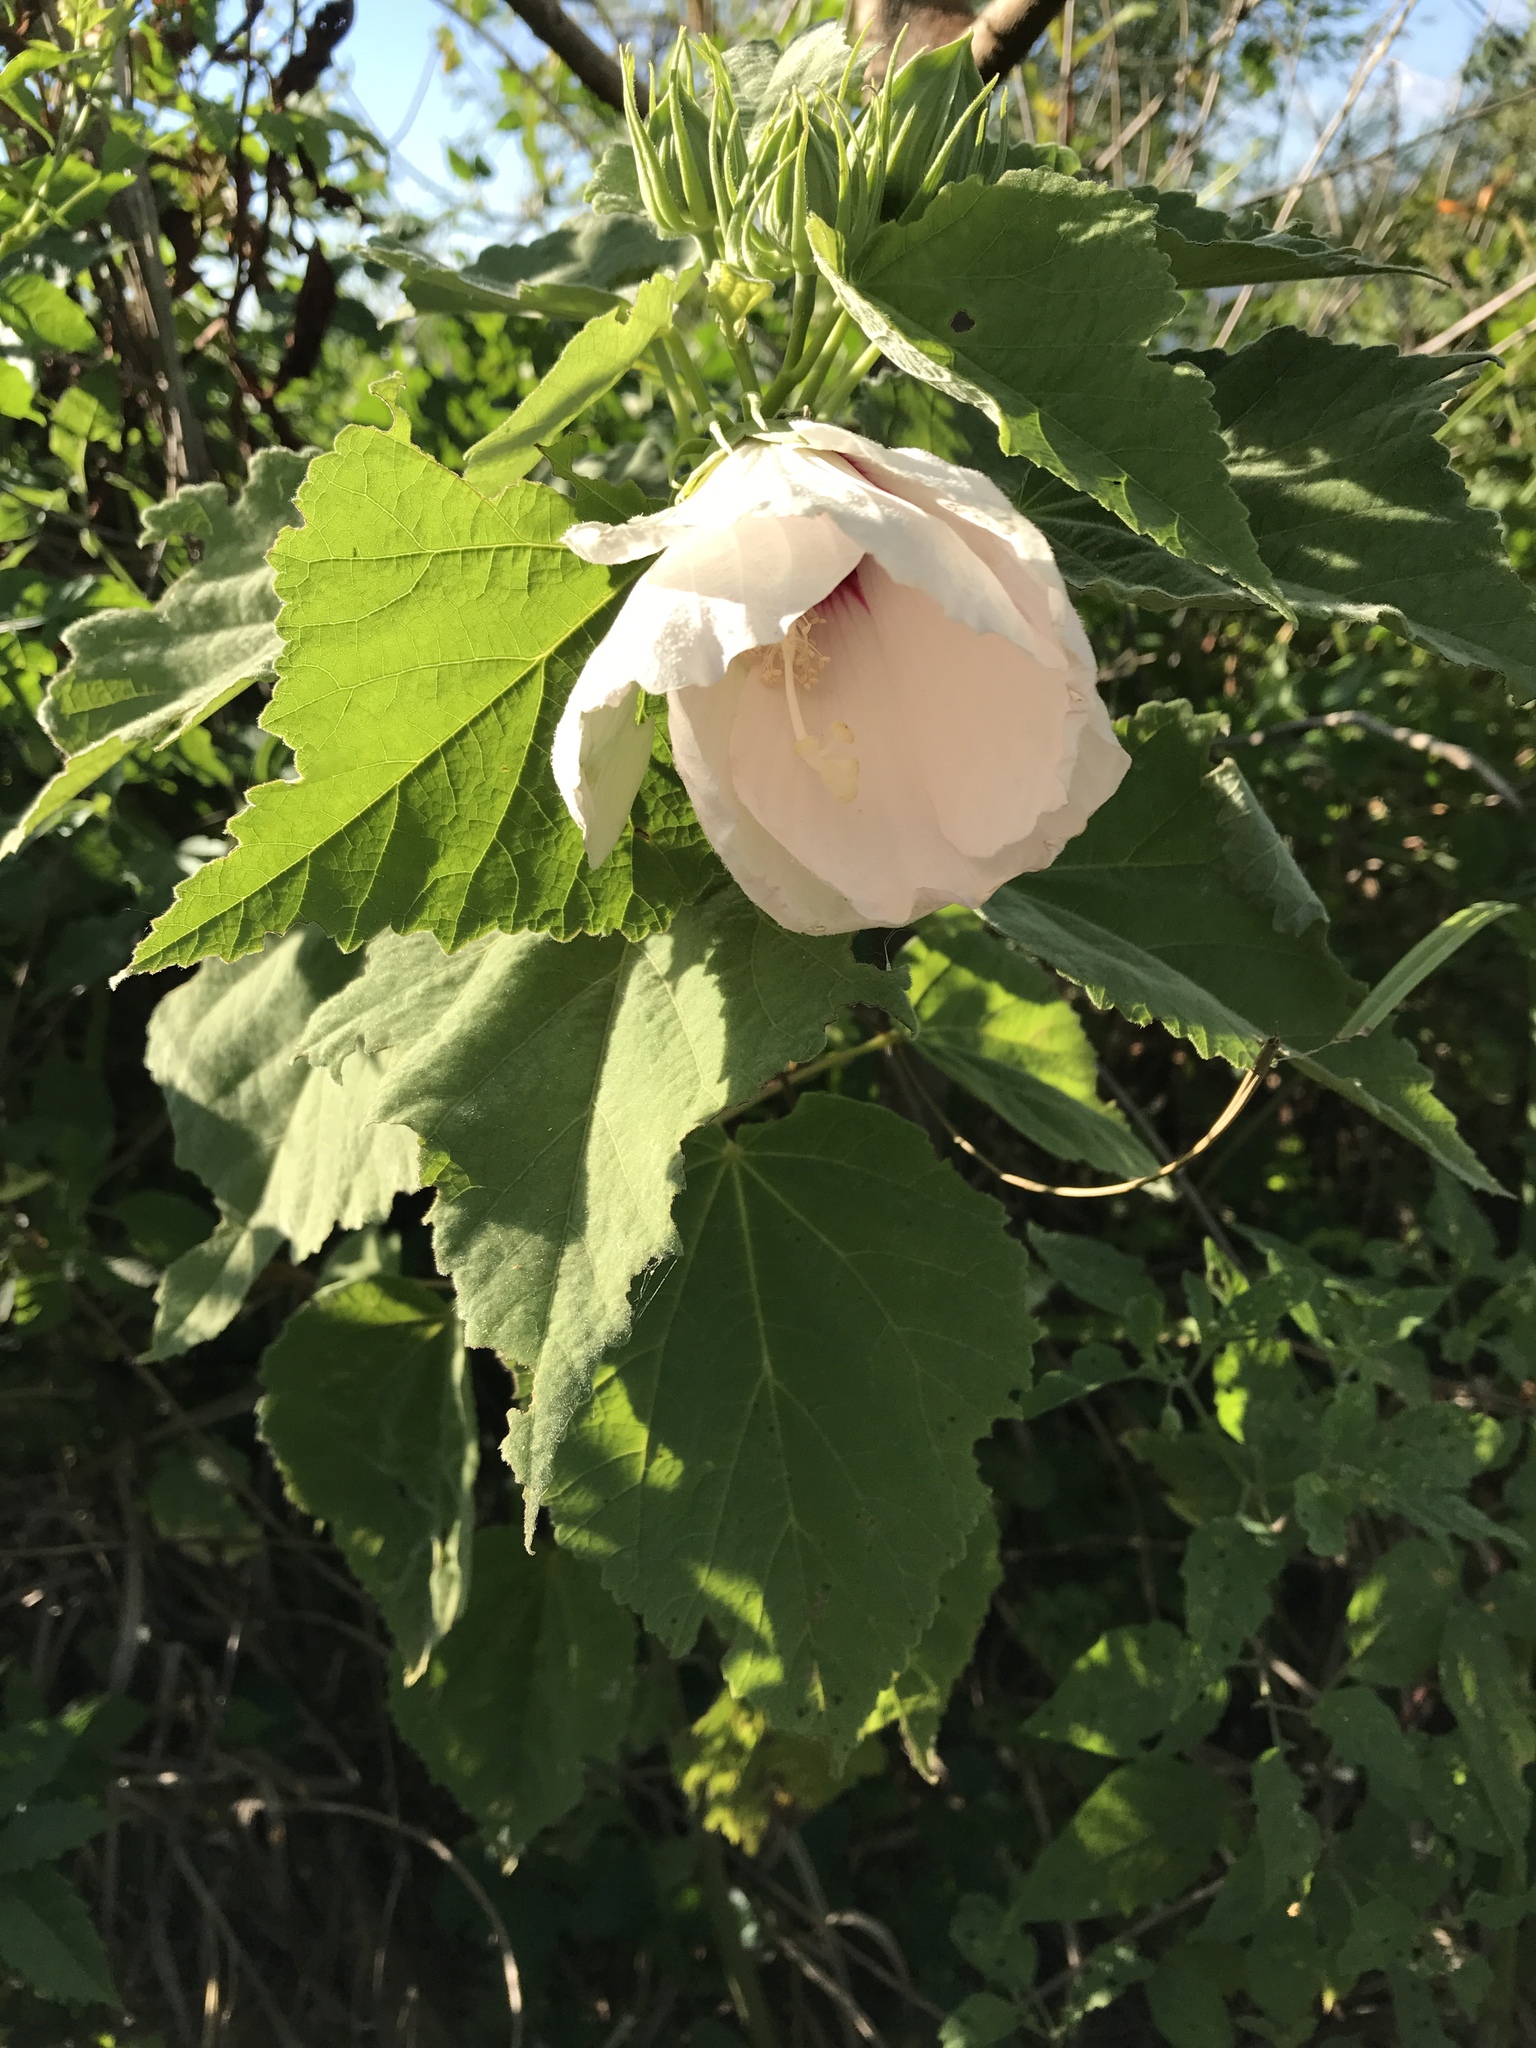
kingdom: Plantae
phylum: Tracheophyta
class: Magnoliopsida
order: Malvales
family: Malvaceae
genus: Hibiscus
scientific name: Hibiscus moscheutos
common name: Common rose-mallow
